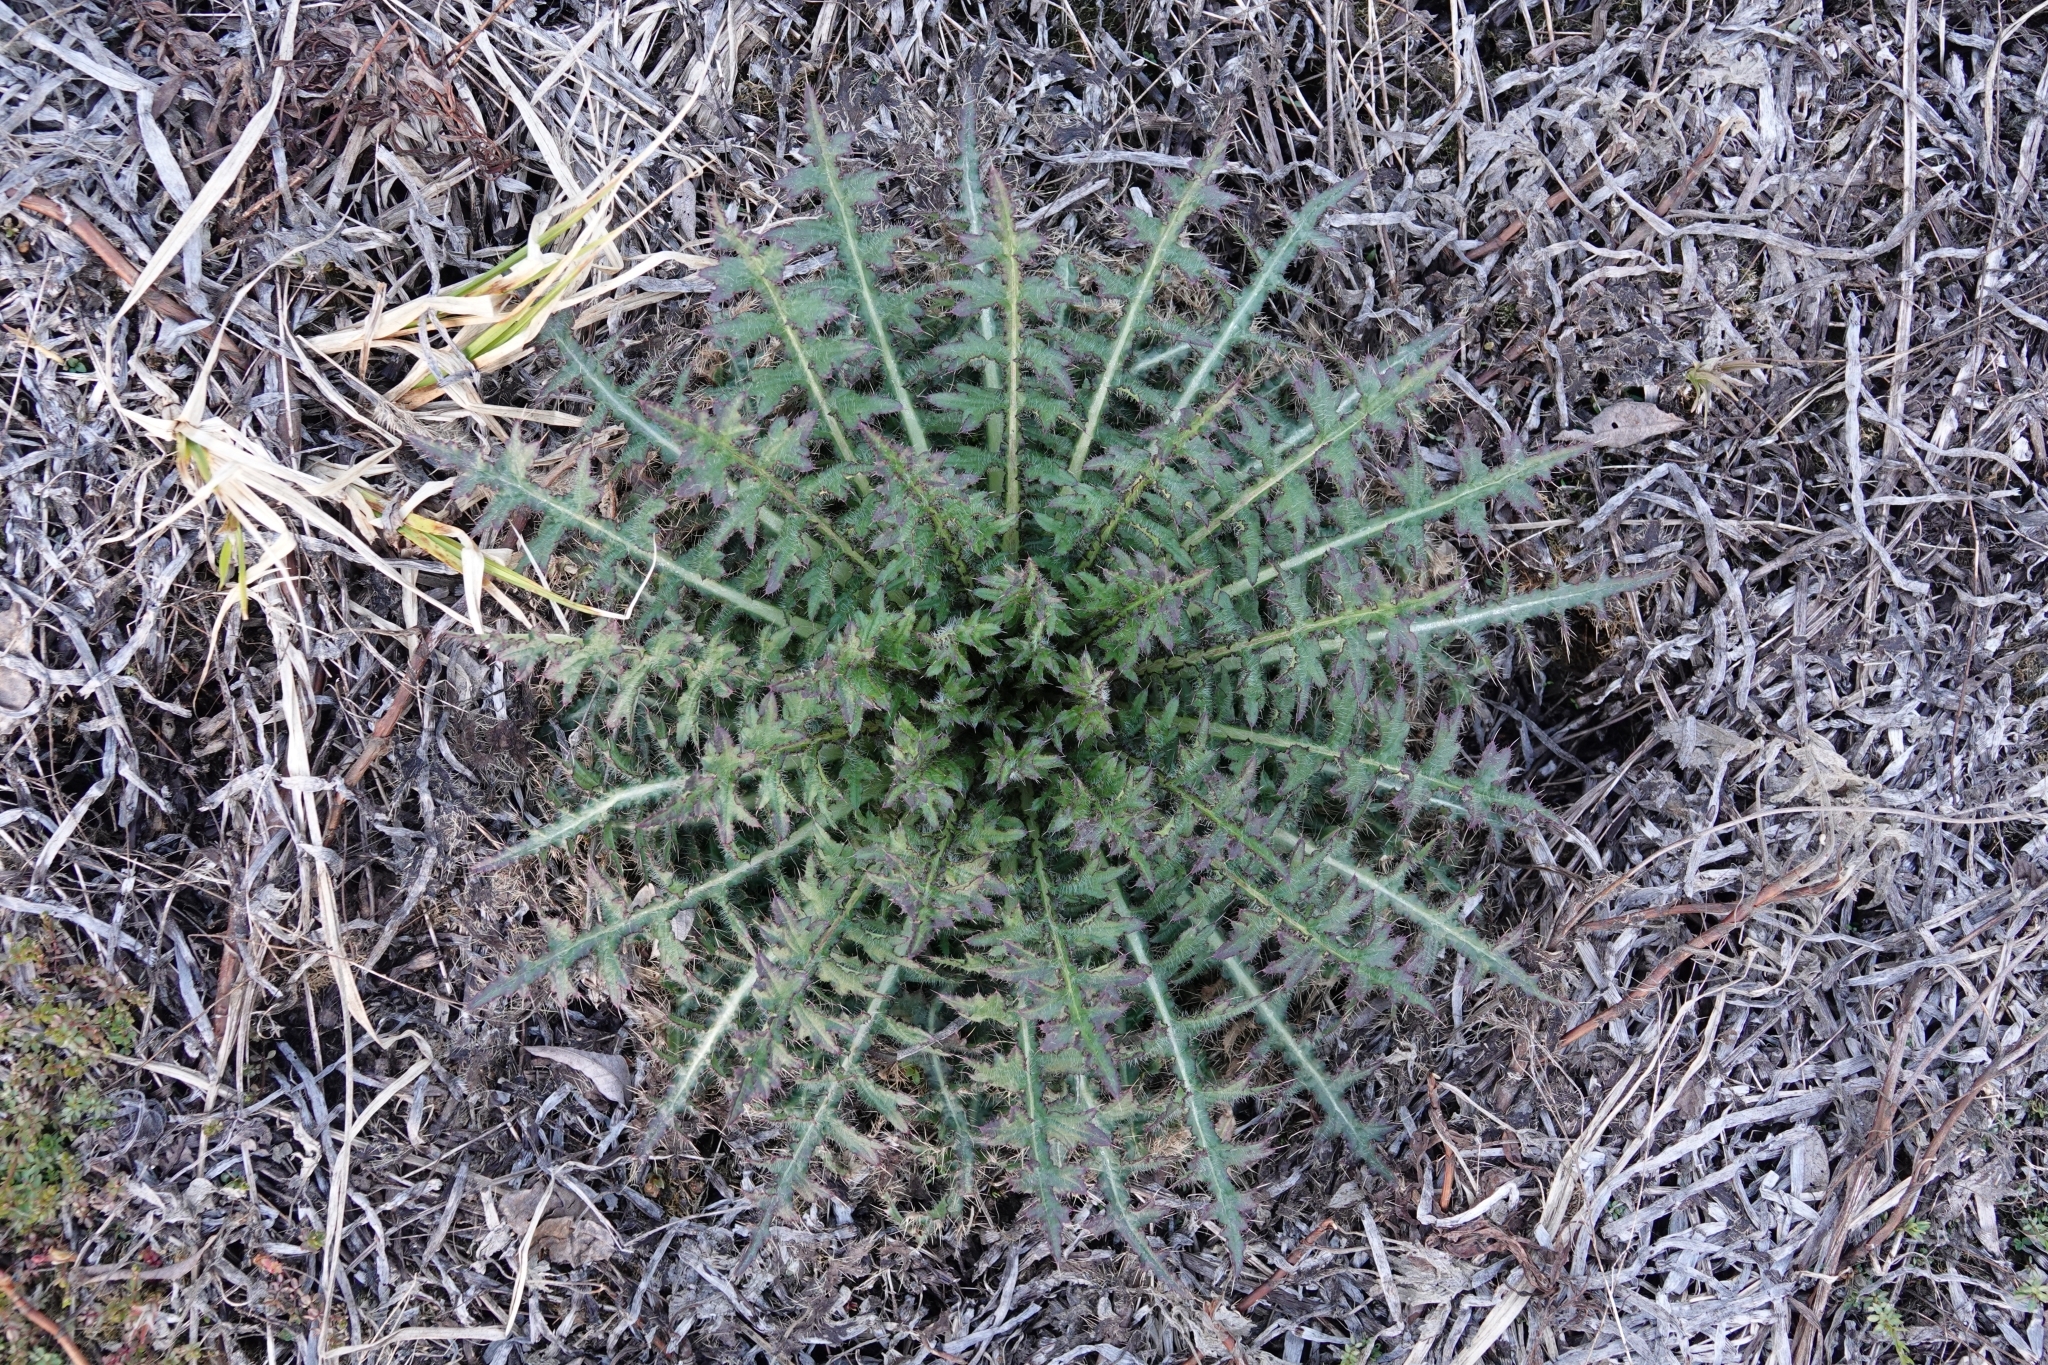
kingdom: Plantae
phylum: Tracheophyta
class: Magnoliopsida
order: Asterales
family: Asteraceae
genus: Cirsium
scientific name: Cirsium palustre
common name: Marsh thistle
